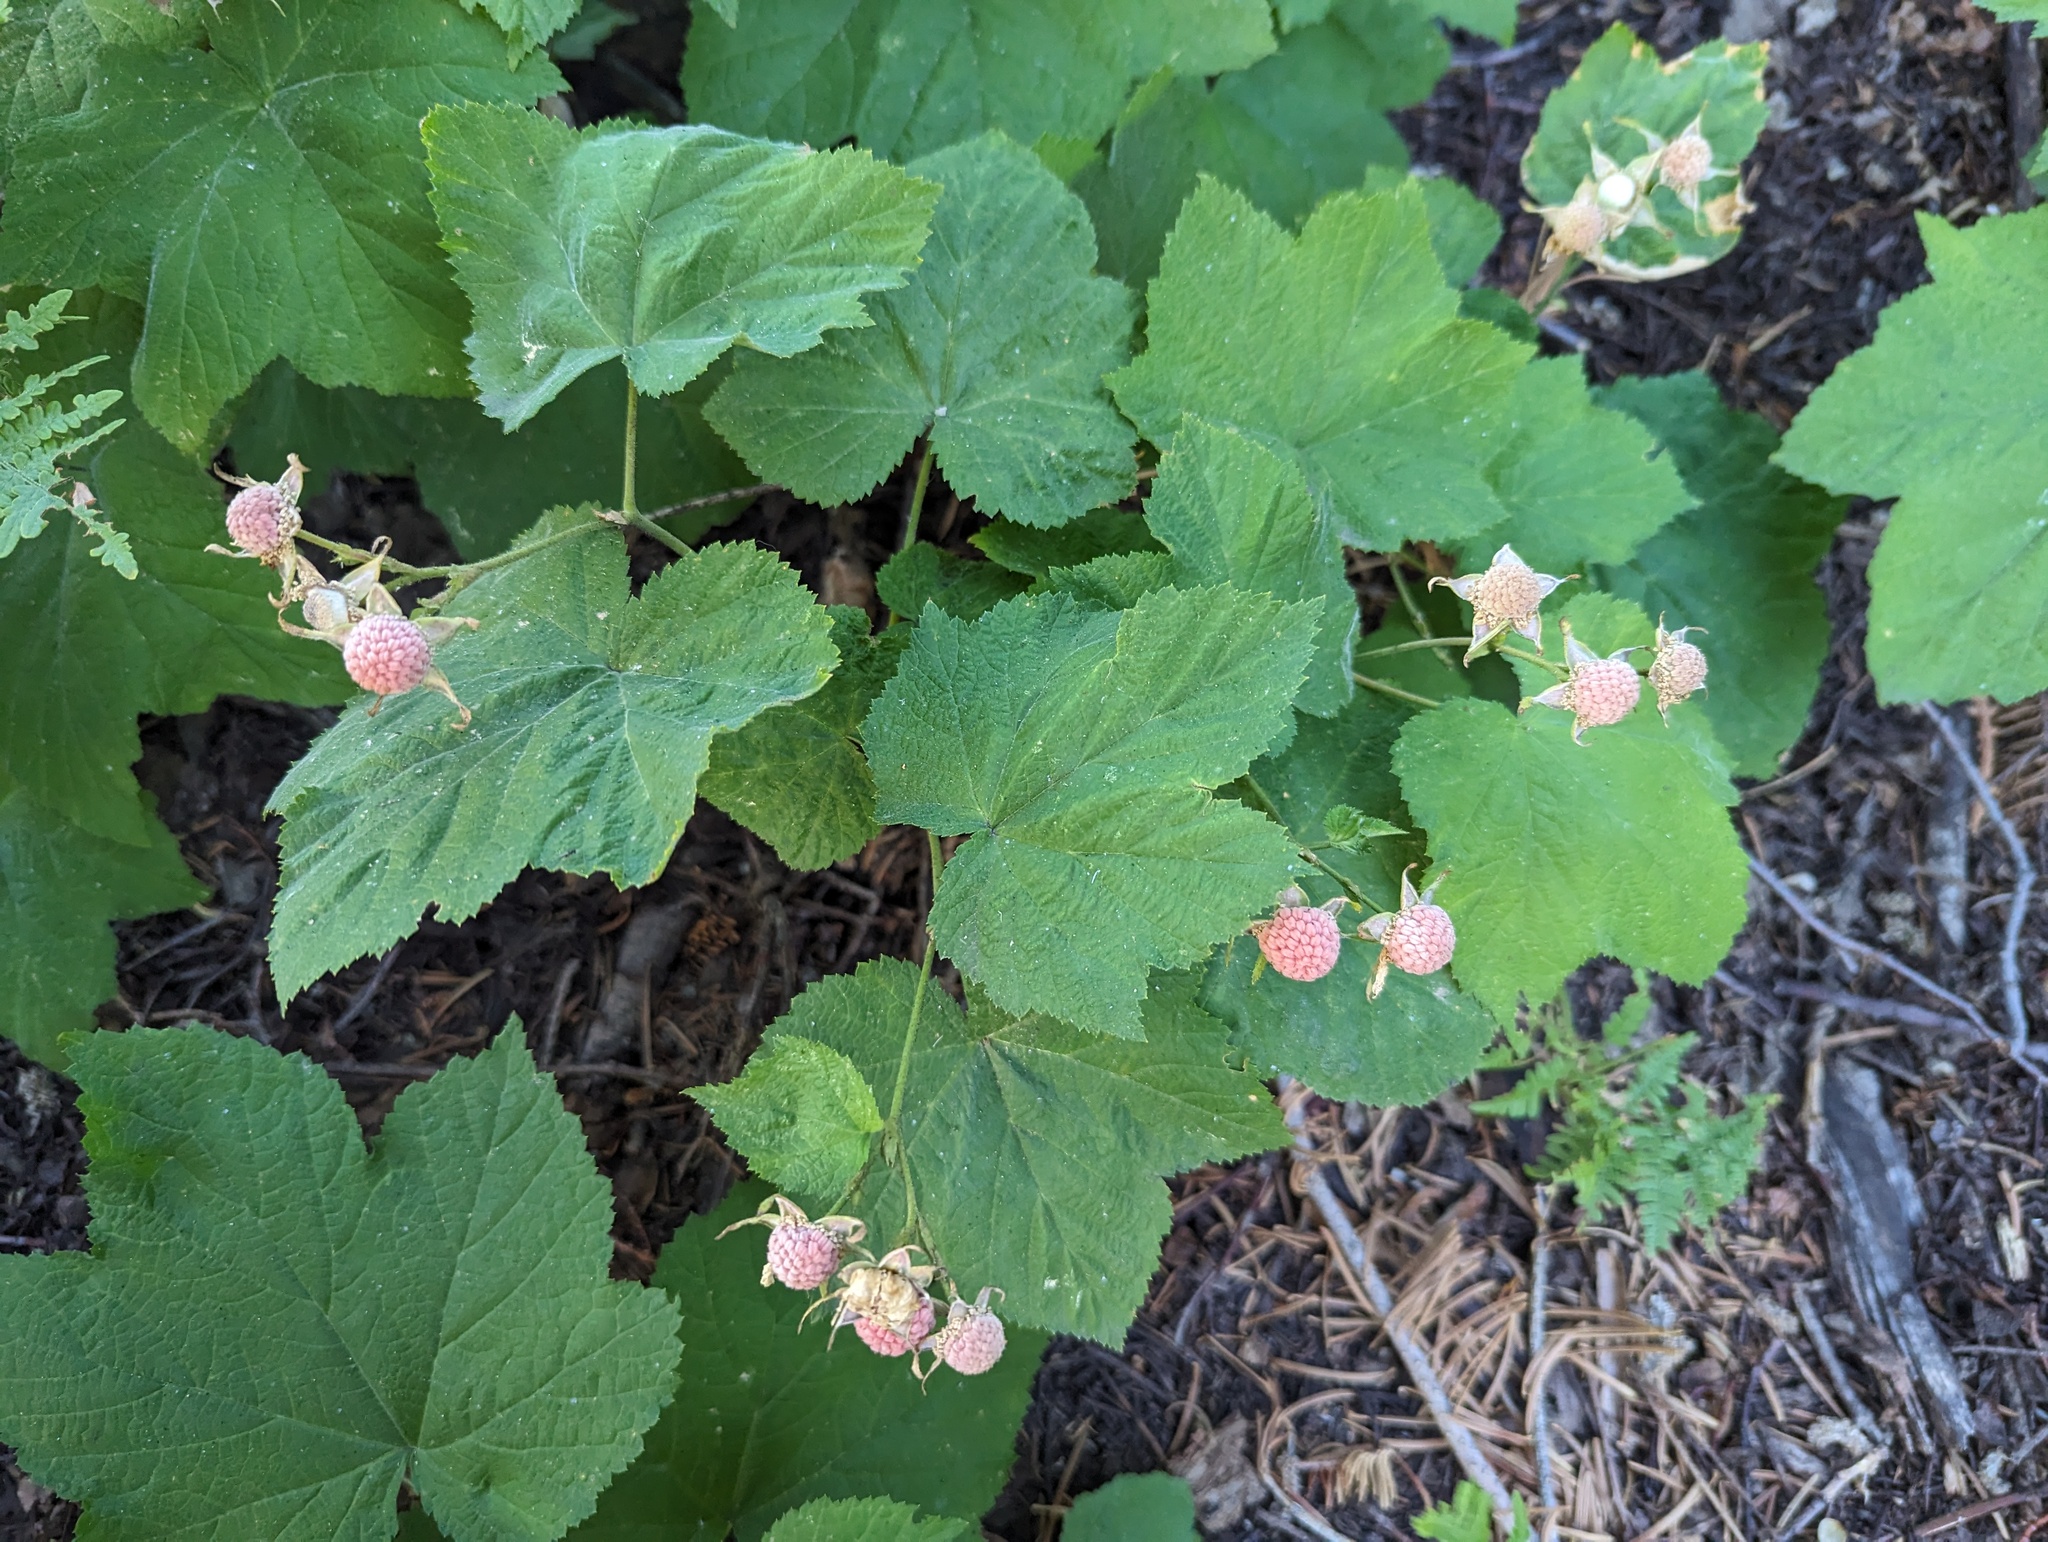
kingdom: Plantae
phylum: Tracheophyta
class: Magnoliopsida
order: Rosales
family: Rosaceae
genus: Rubus
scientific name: Rubus parviflorus
